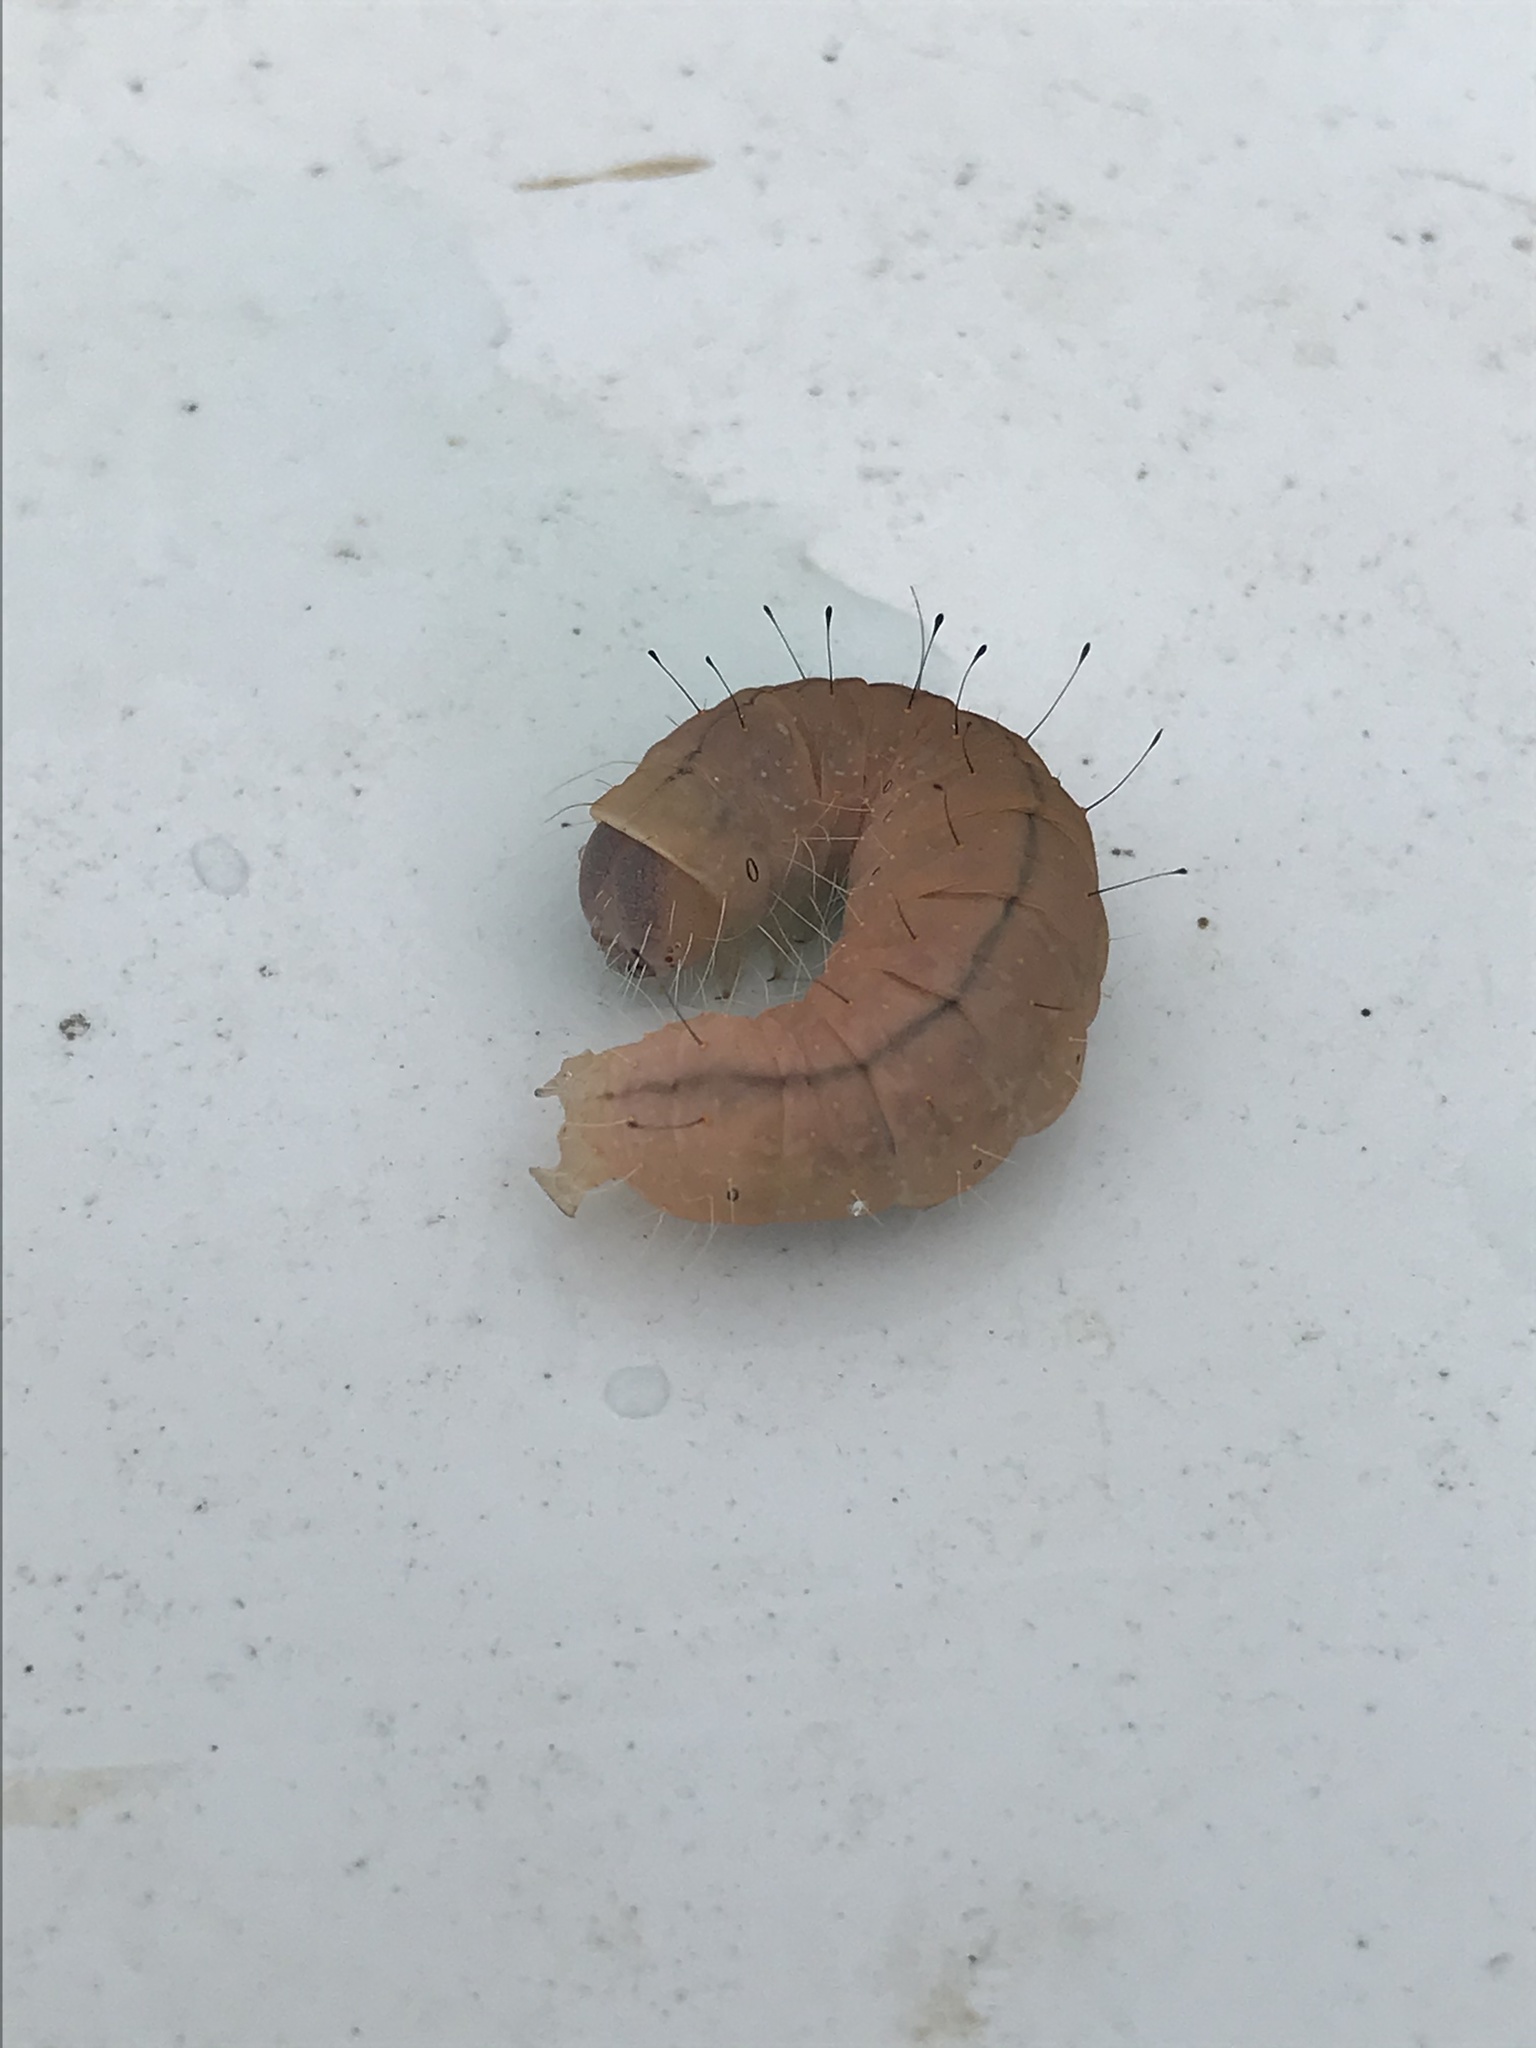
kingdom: Animalia
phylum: Arthropoda
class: Insecta
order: Lepidoptera
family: Noctuidae
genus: Acronicta
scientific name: Acronicta afflicta
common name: Afflicted dagger moth
